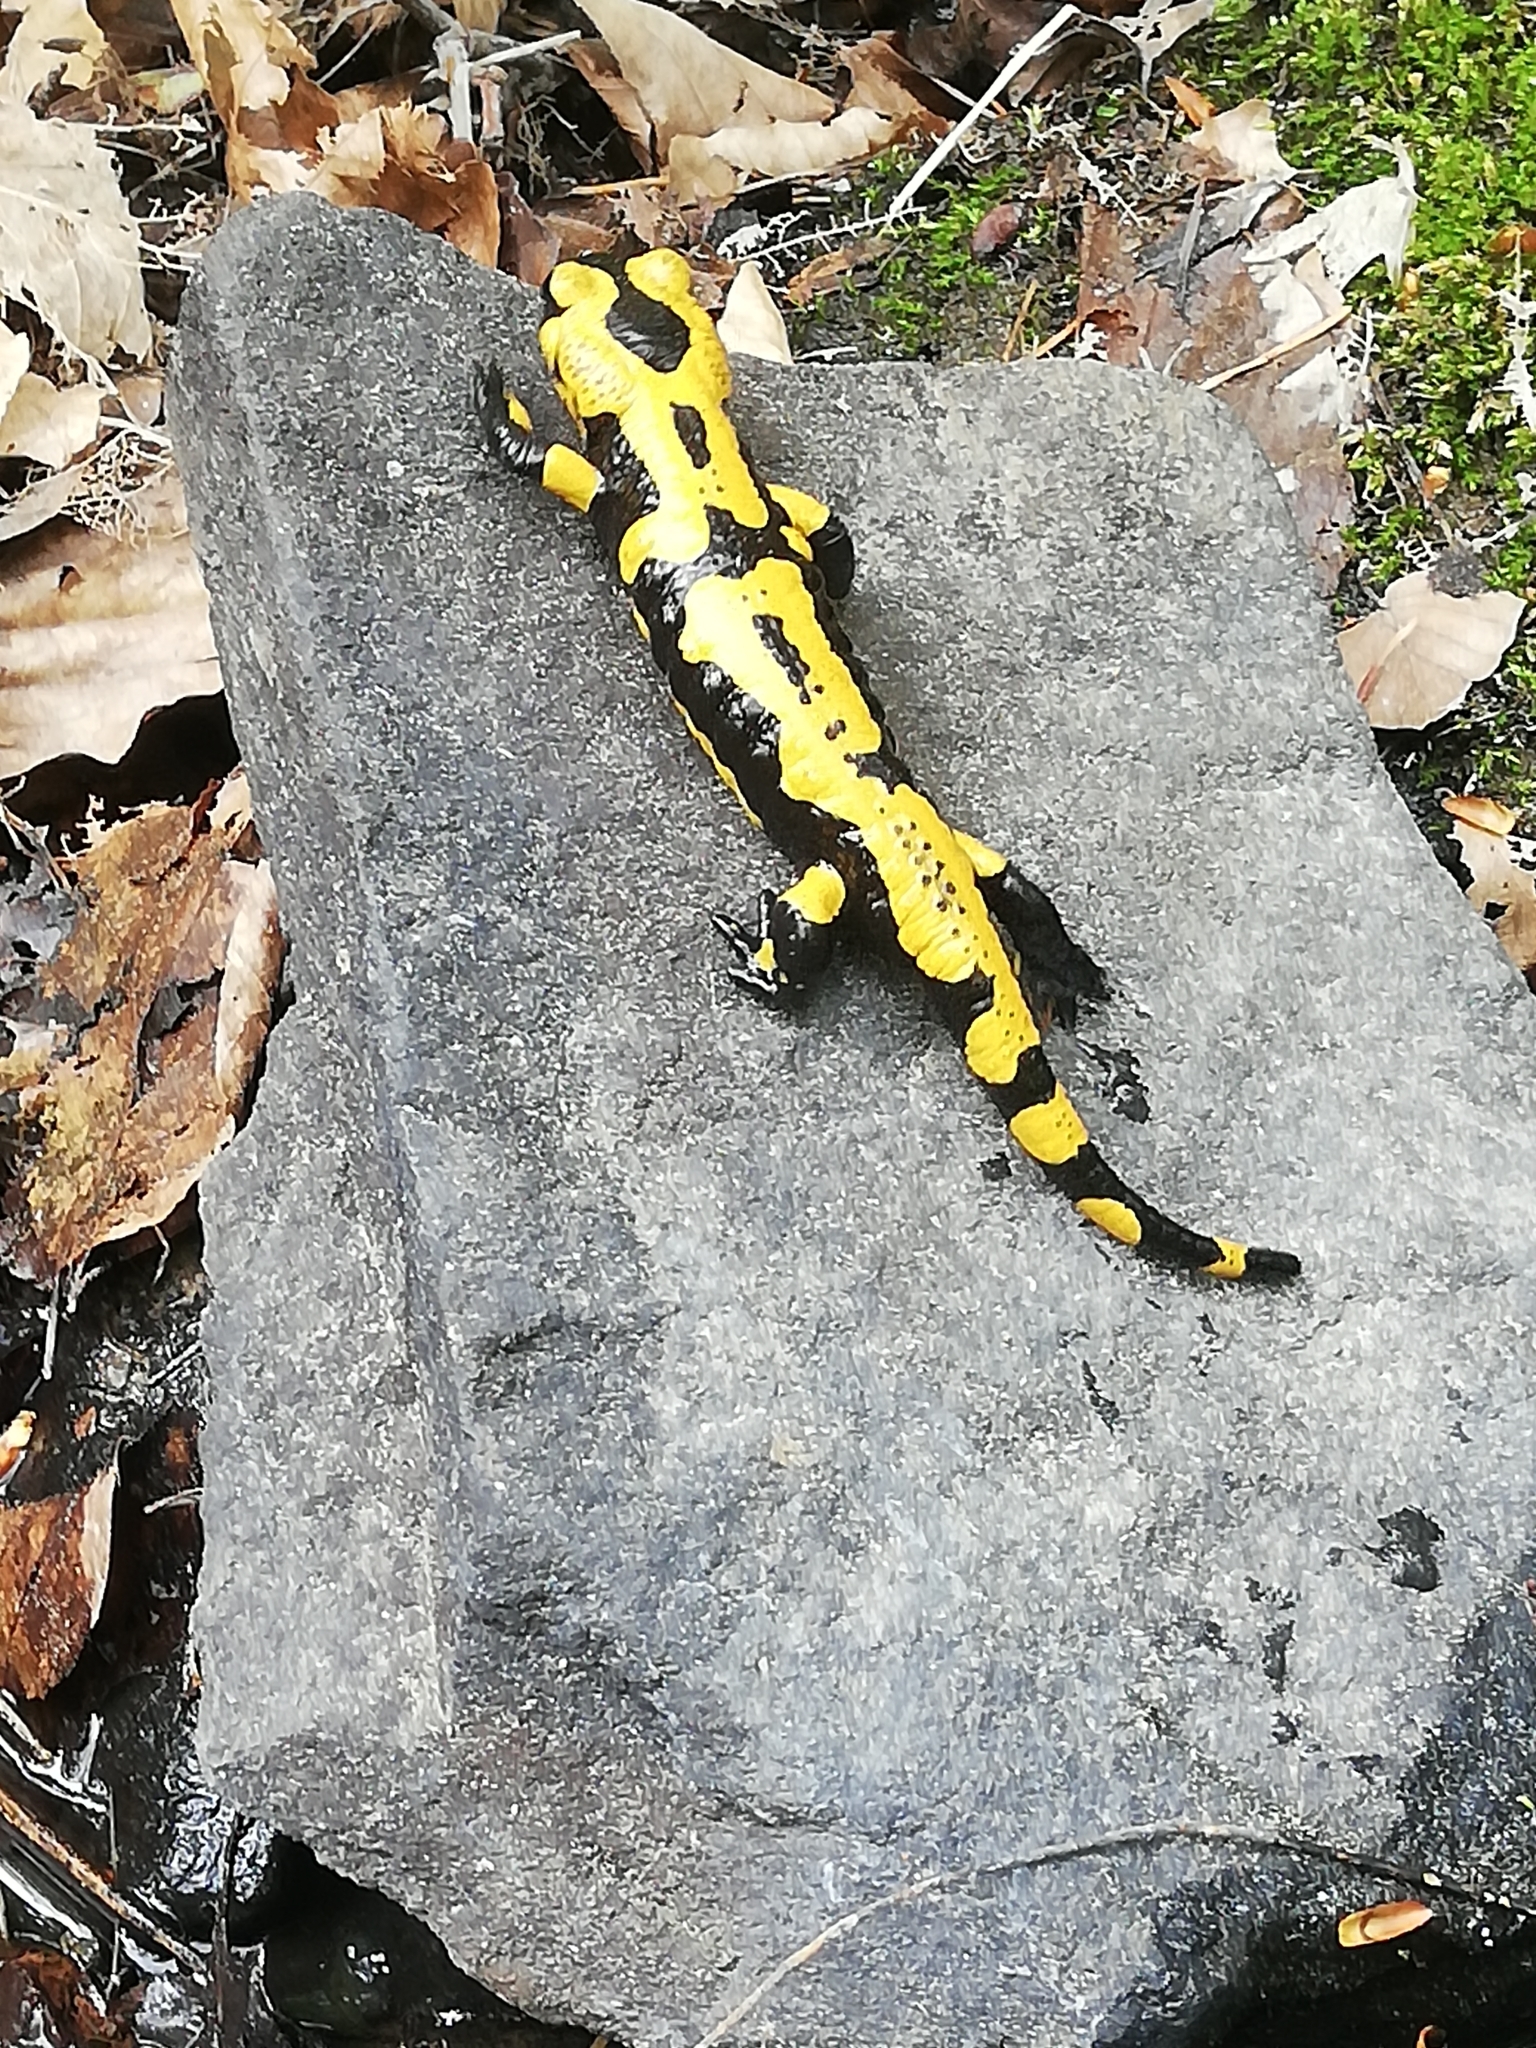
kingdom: Animalia
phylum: Chordata
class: Amphibia
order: Caudata
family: Salamandridae
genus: Salamandra
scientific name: Salamandra salamandra
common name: Fire salamander
